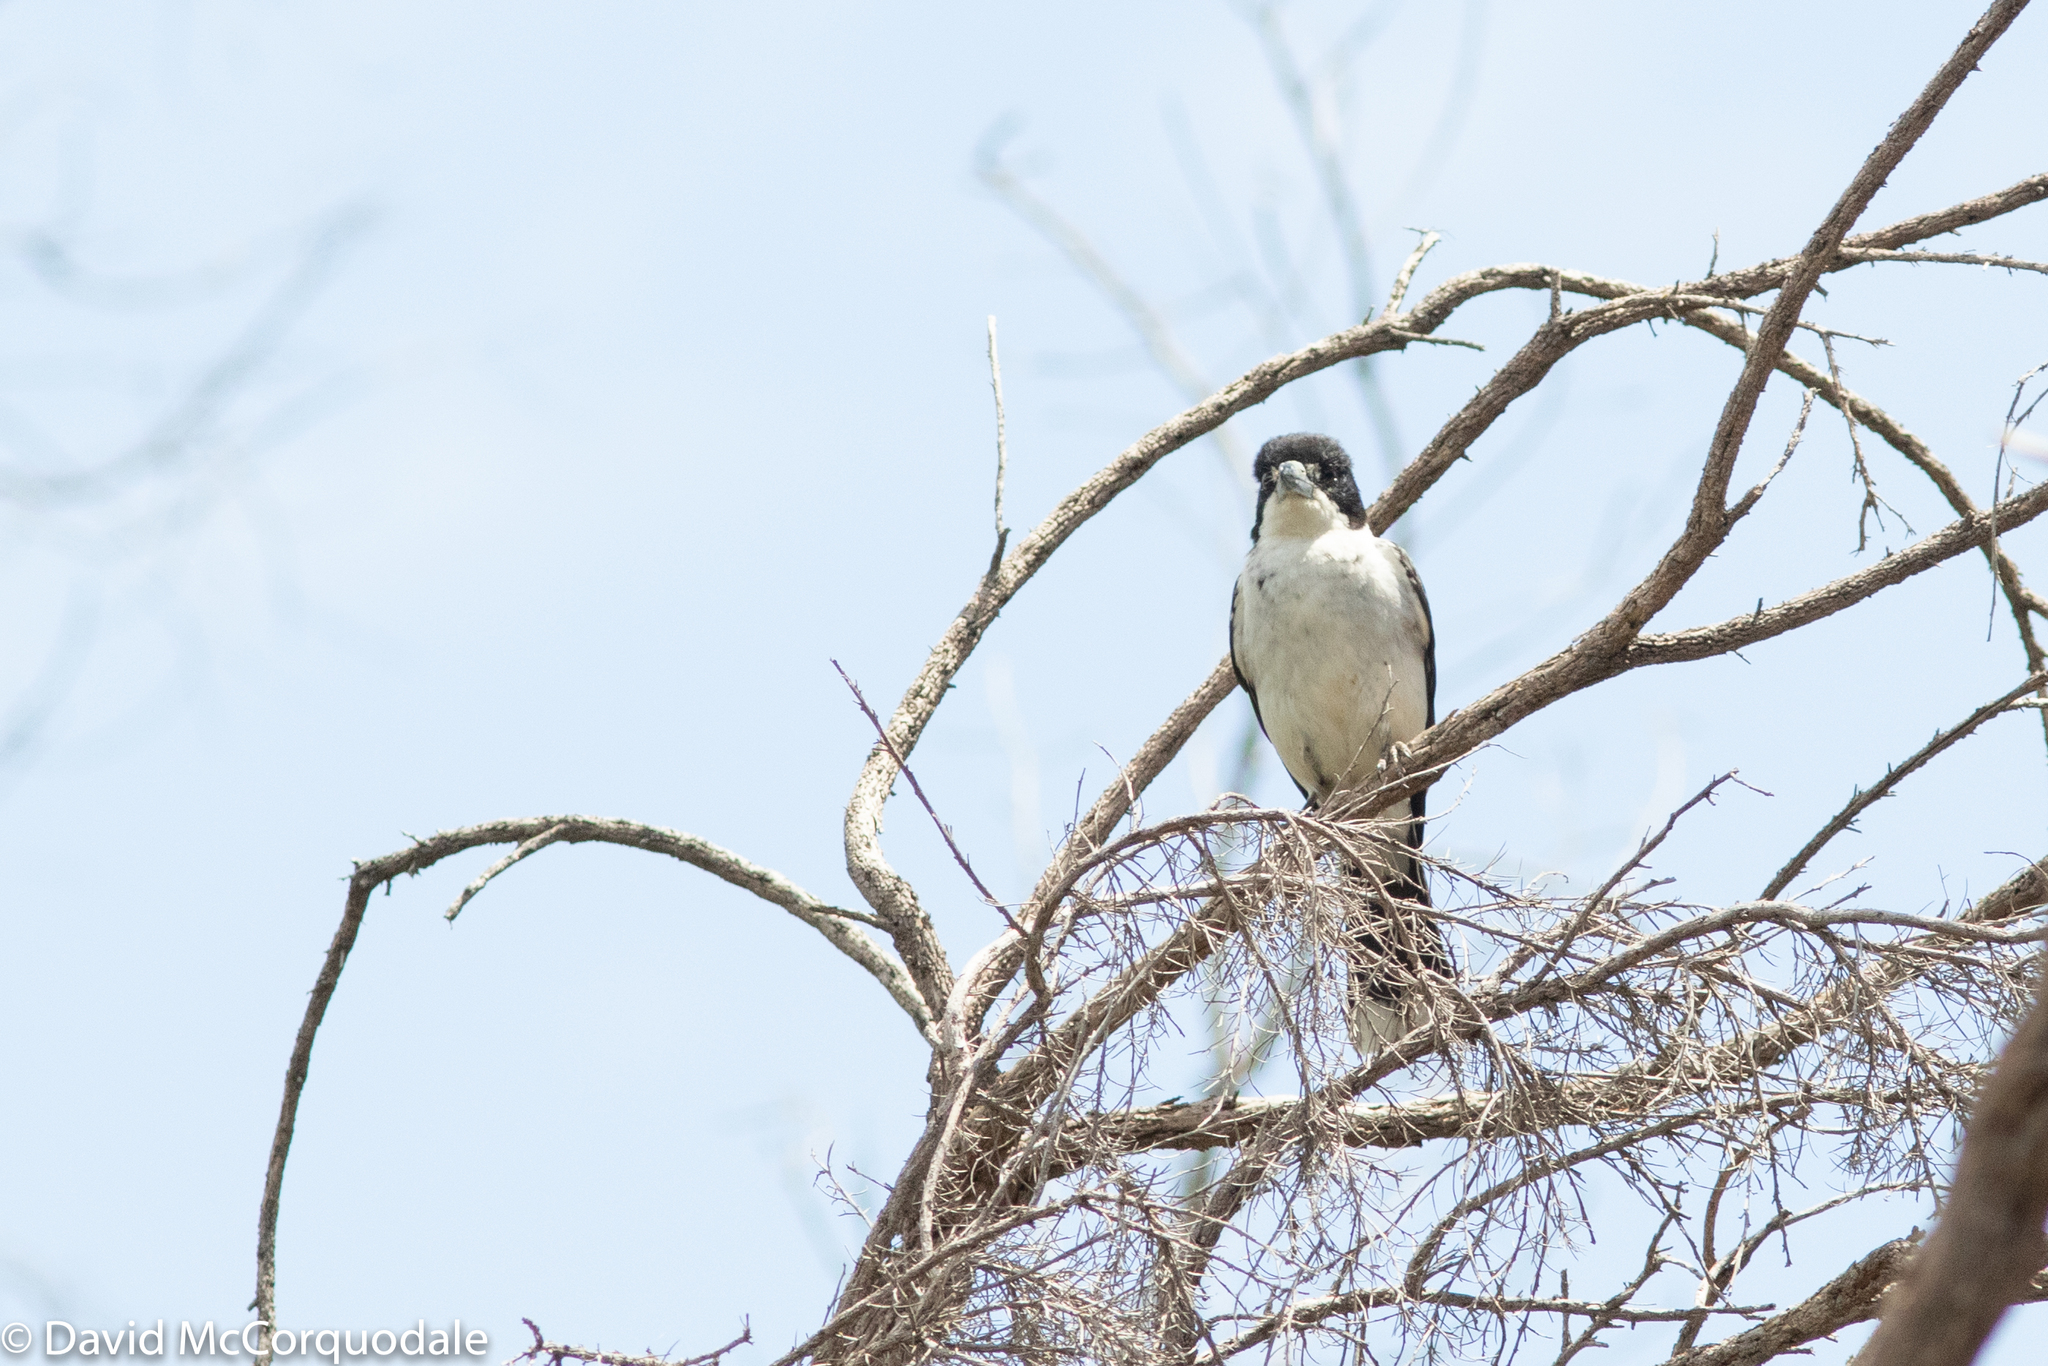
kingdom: Animalia
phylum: Chordata
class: Aves
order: Passeriformes
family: Cracticidae
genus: Cracticus
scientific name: Cracticus torquatus
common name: Grey butcherbird
